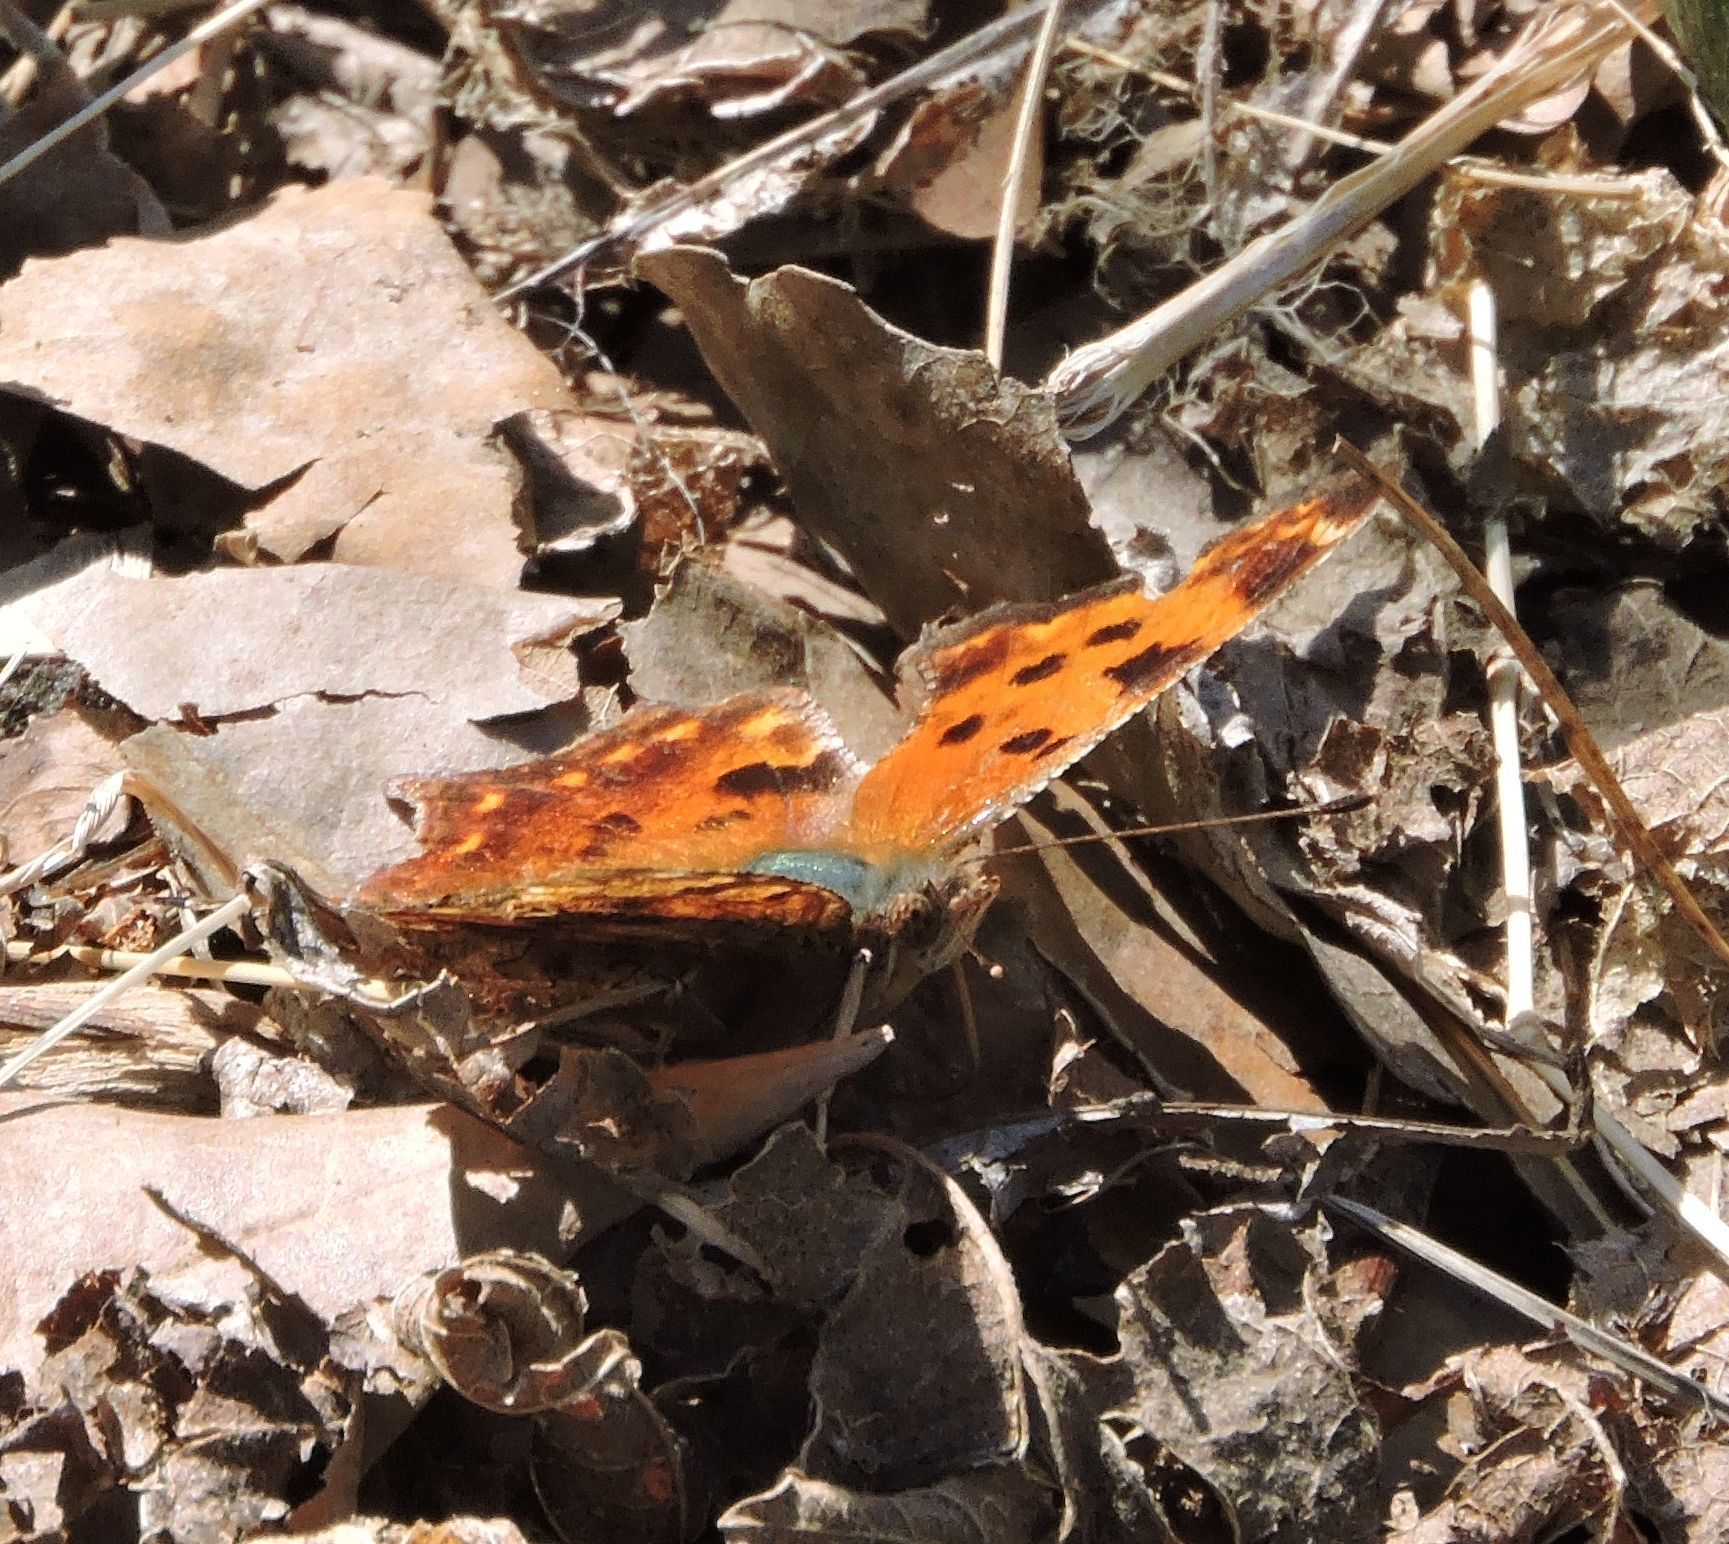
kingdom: Animalia
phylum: Arthropoda
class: Insecta
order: Lepidoptera
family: Nymphalidae
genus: Polygonia
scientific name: Polygonia comma
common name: Eastern comma
